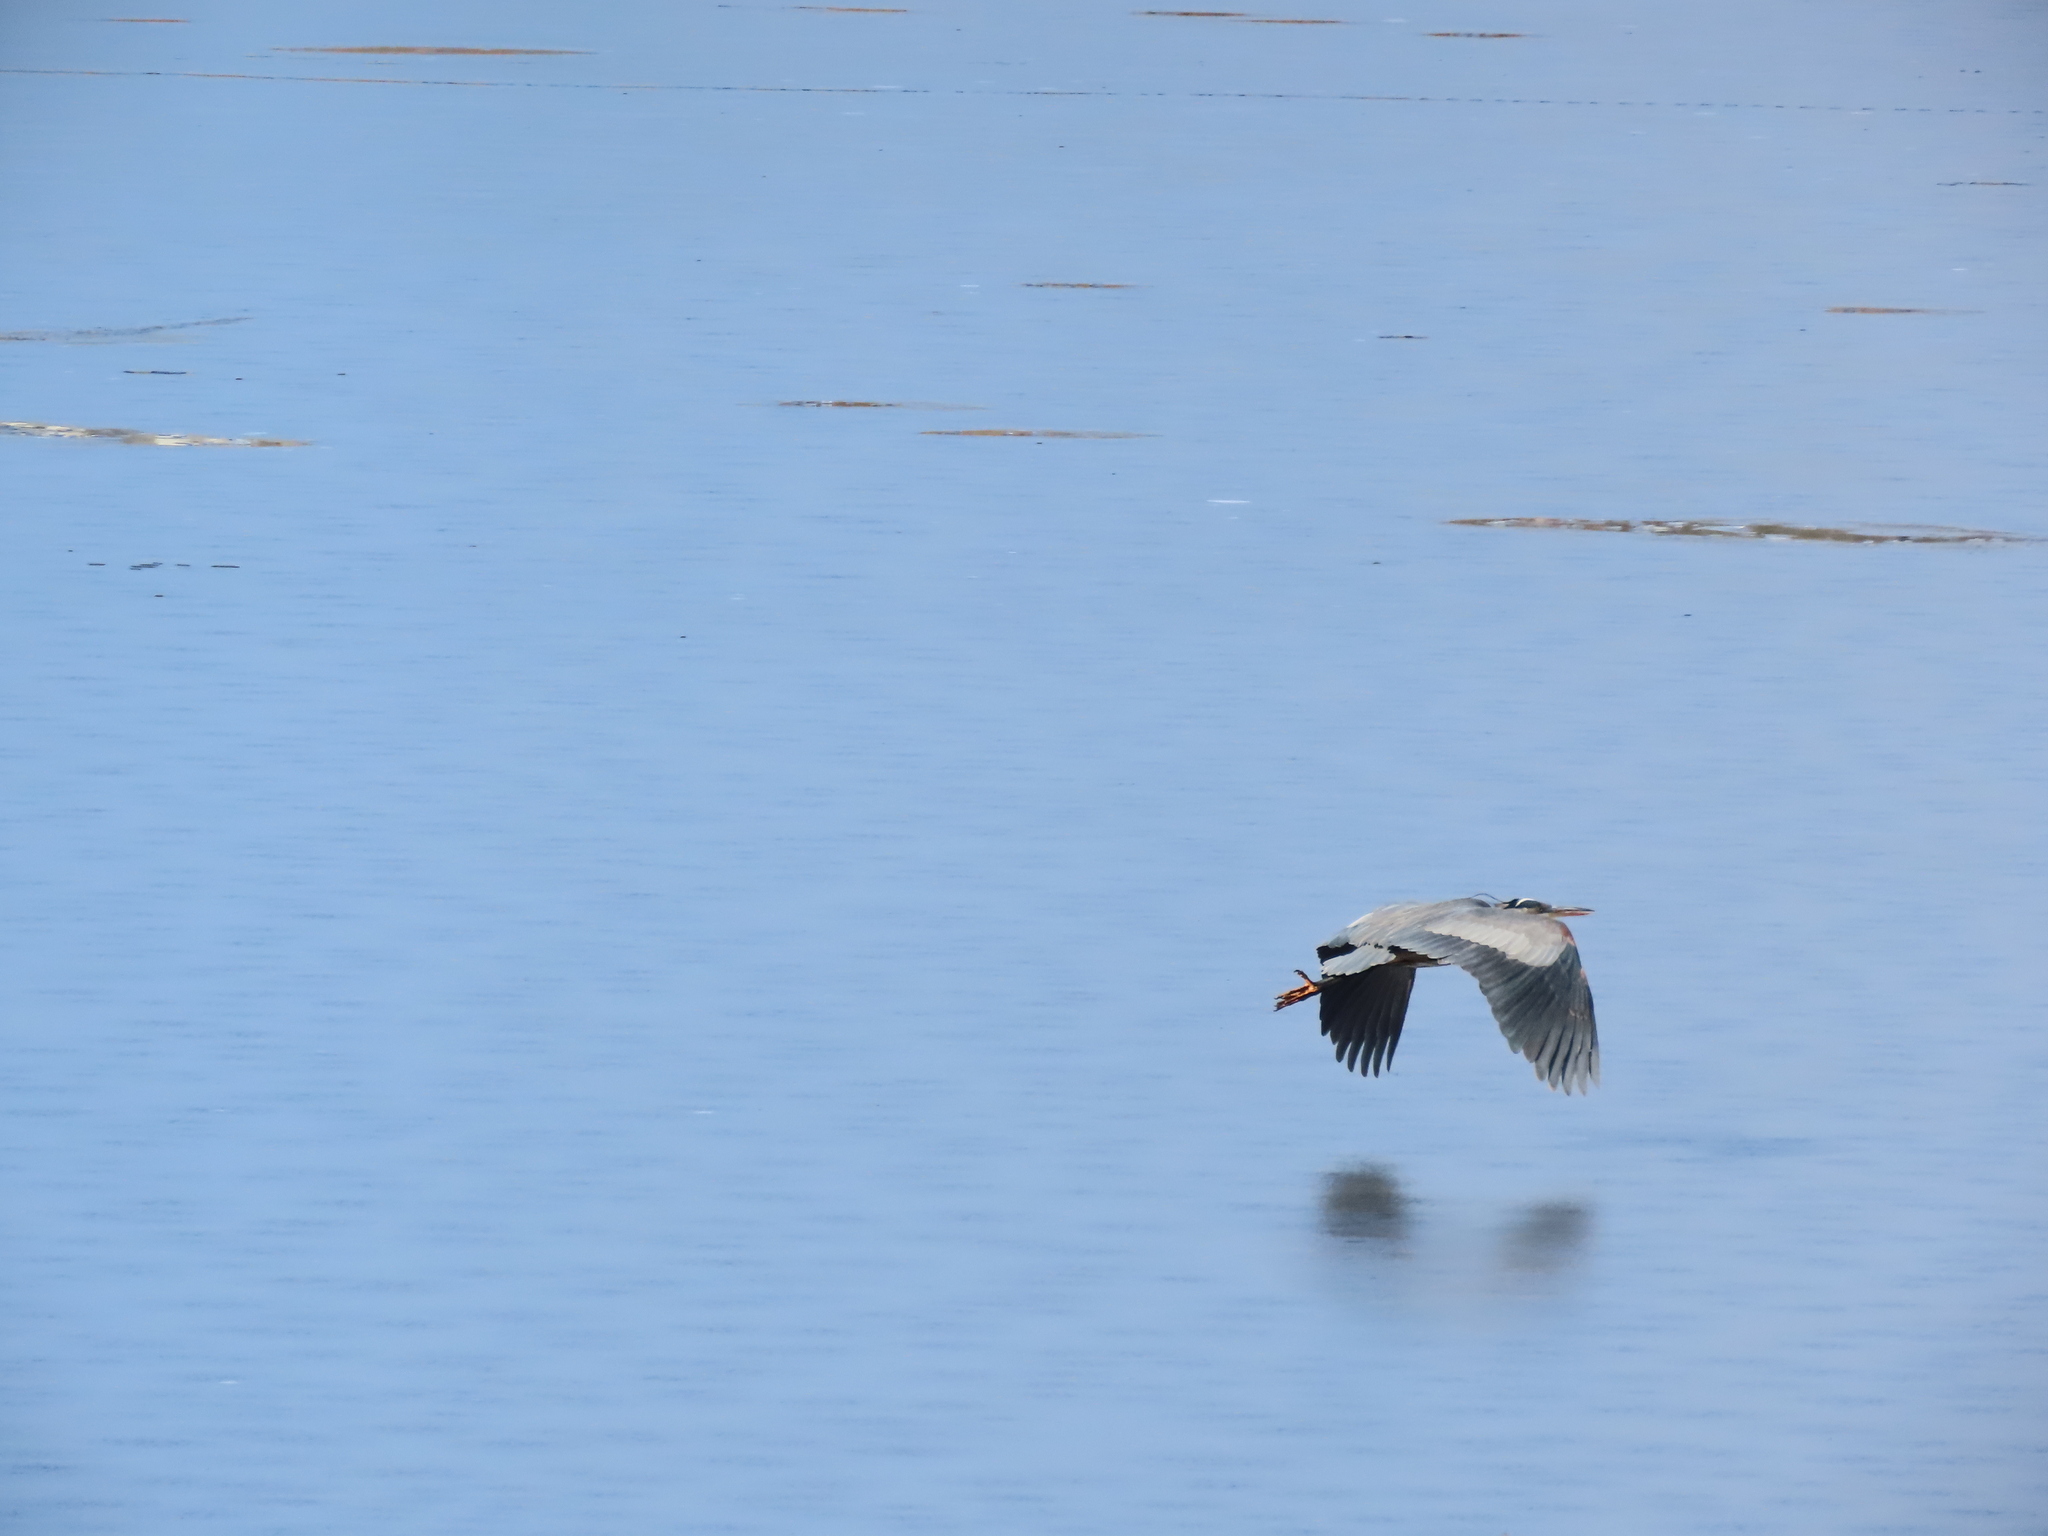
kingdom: Animalia
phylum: Chordata
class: Aves
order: Pelecaniformes
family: Ardeidae
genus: Ardea
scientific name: Ardea herodias
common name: Great blue heron
